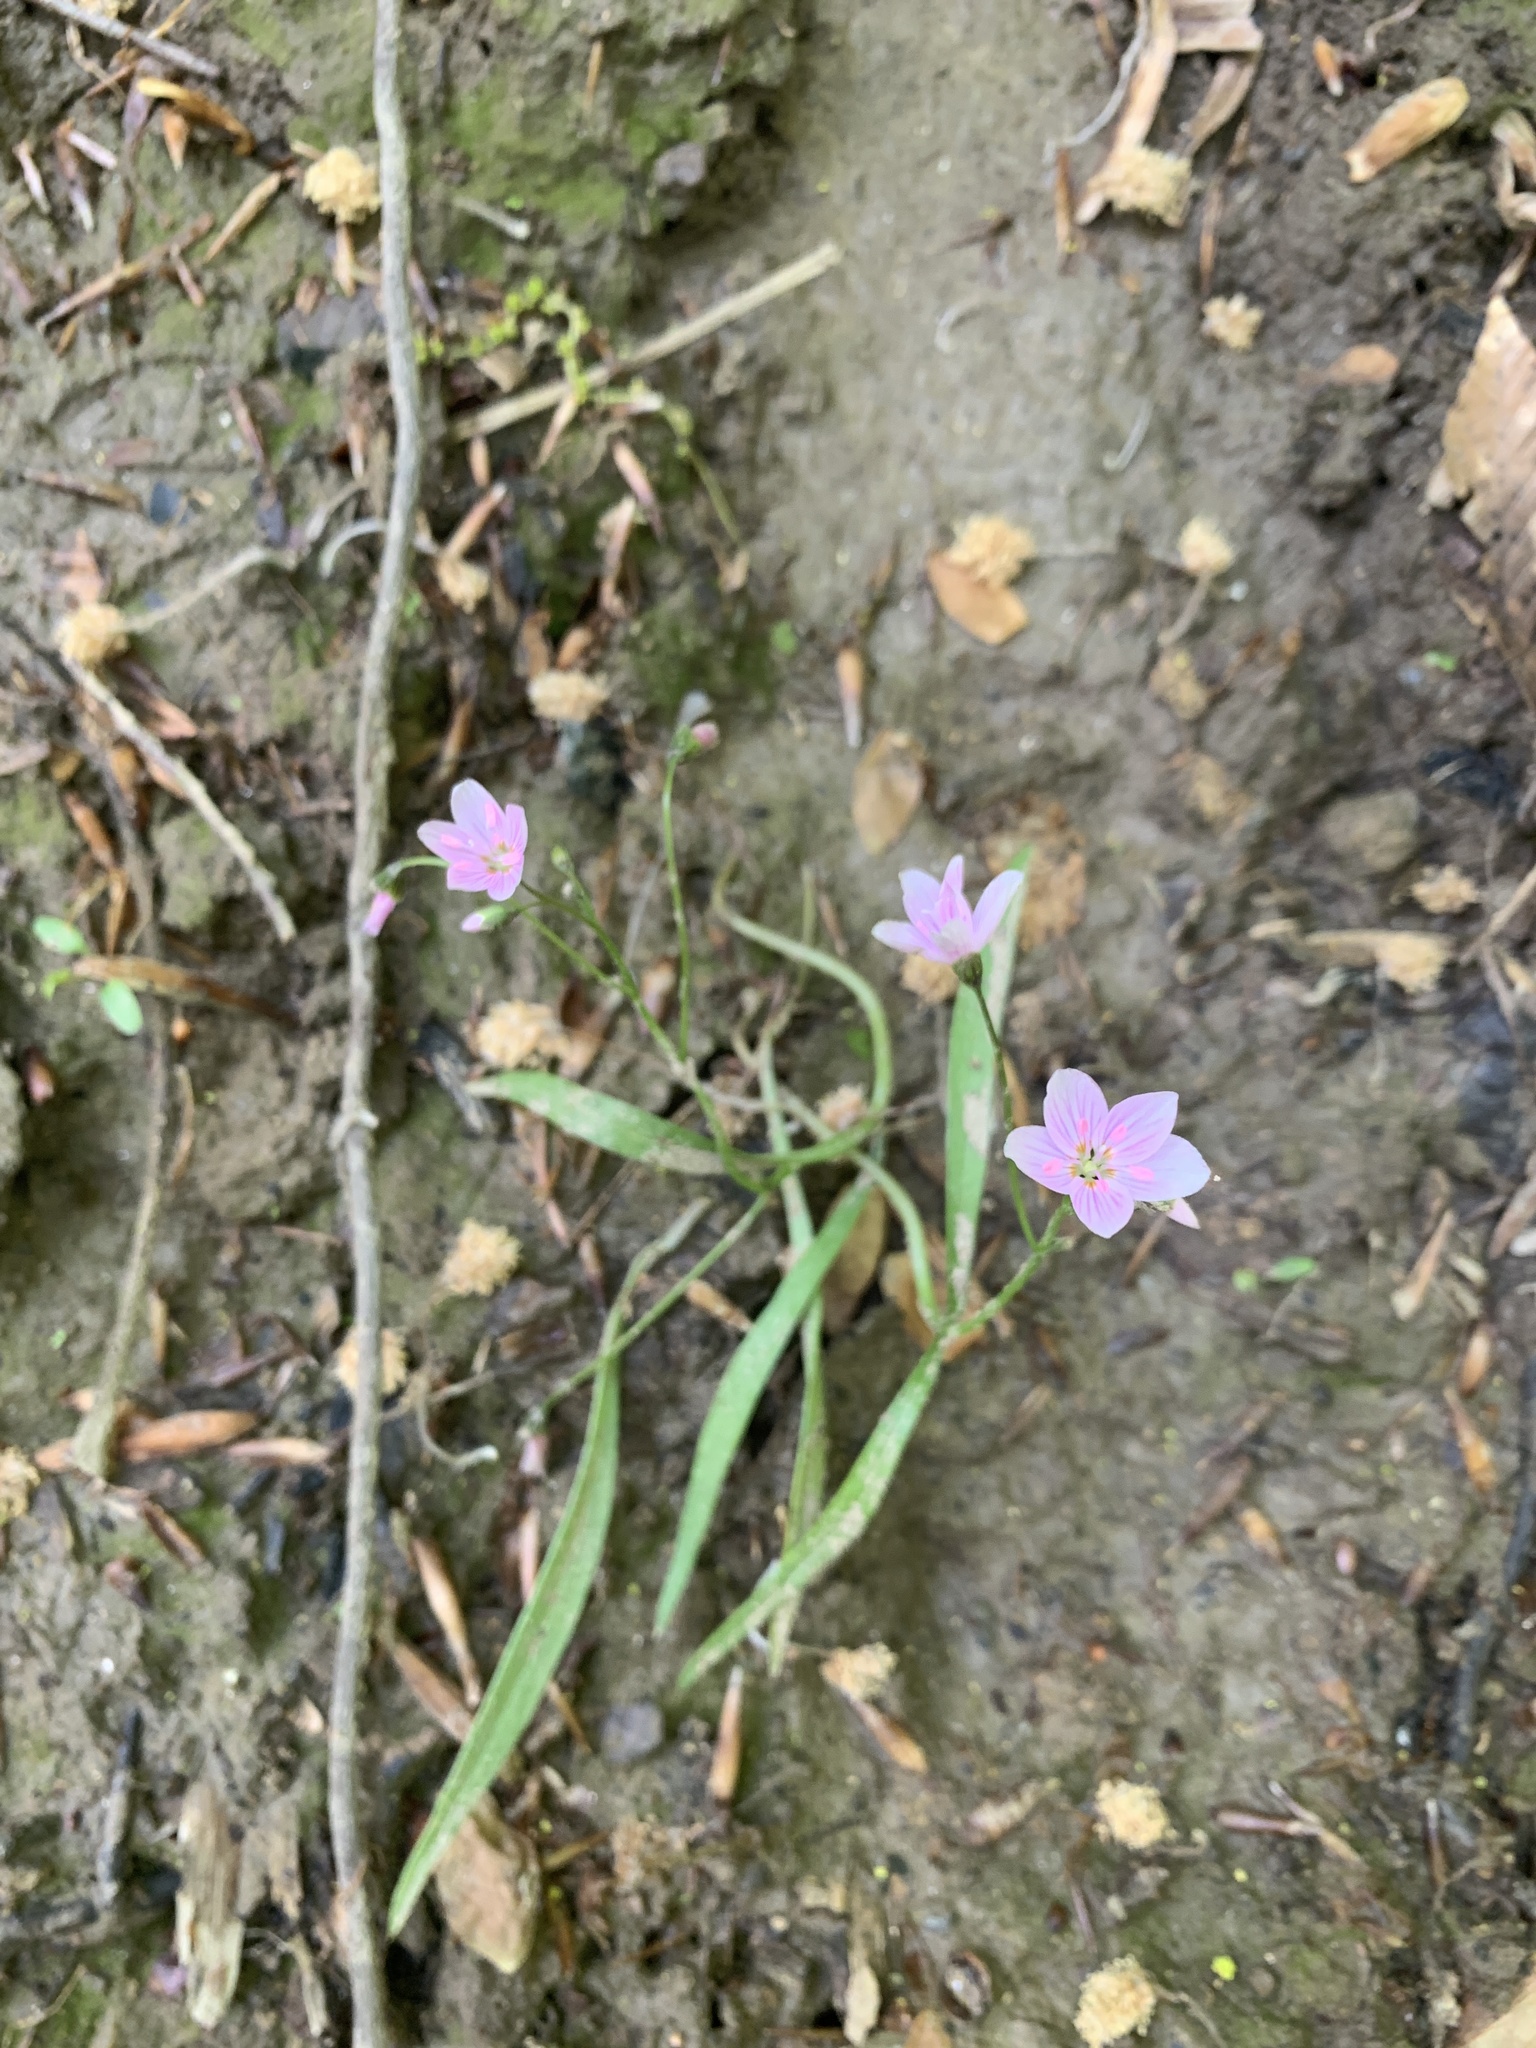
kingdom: Plantae
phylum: Tracheophyta
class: Magnoliopsida
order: Caryophyllales
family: Montiaceae
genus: Claytonia
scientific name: Claytonia virginica
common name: Virginia springbeauty
